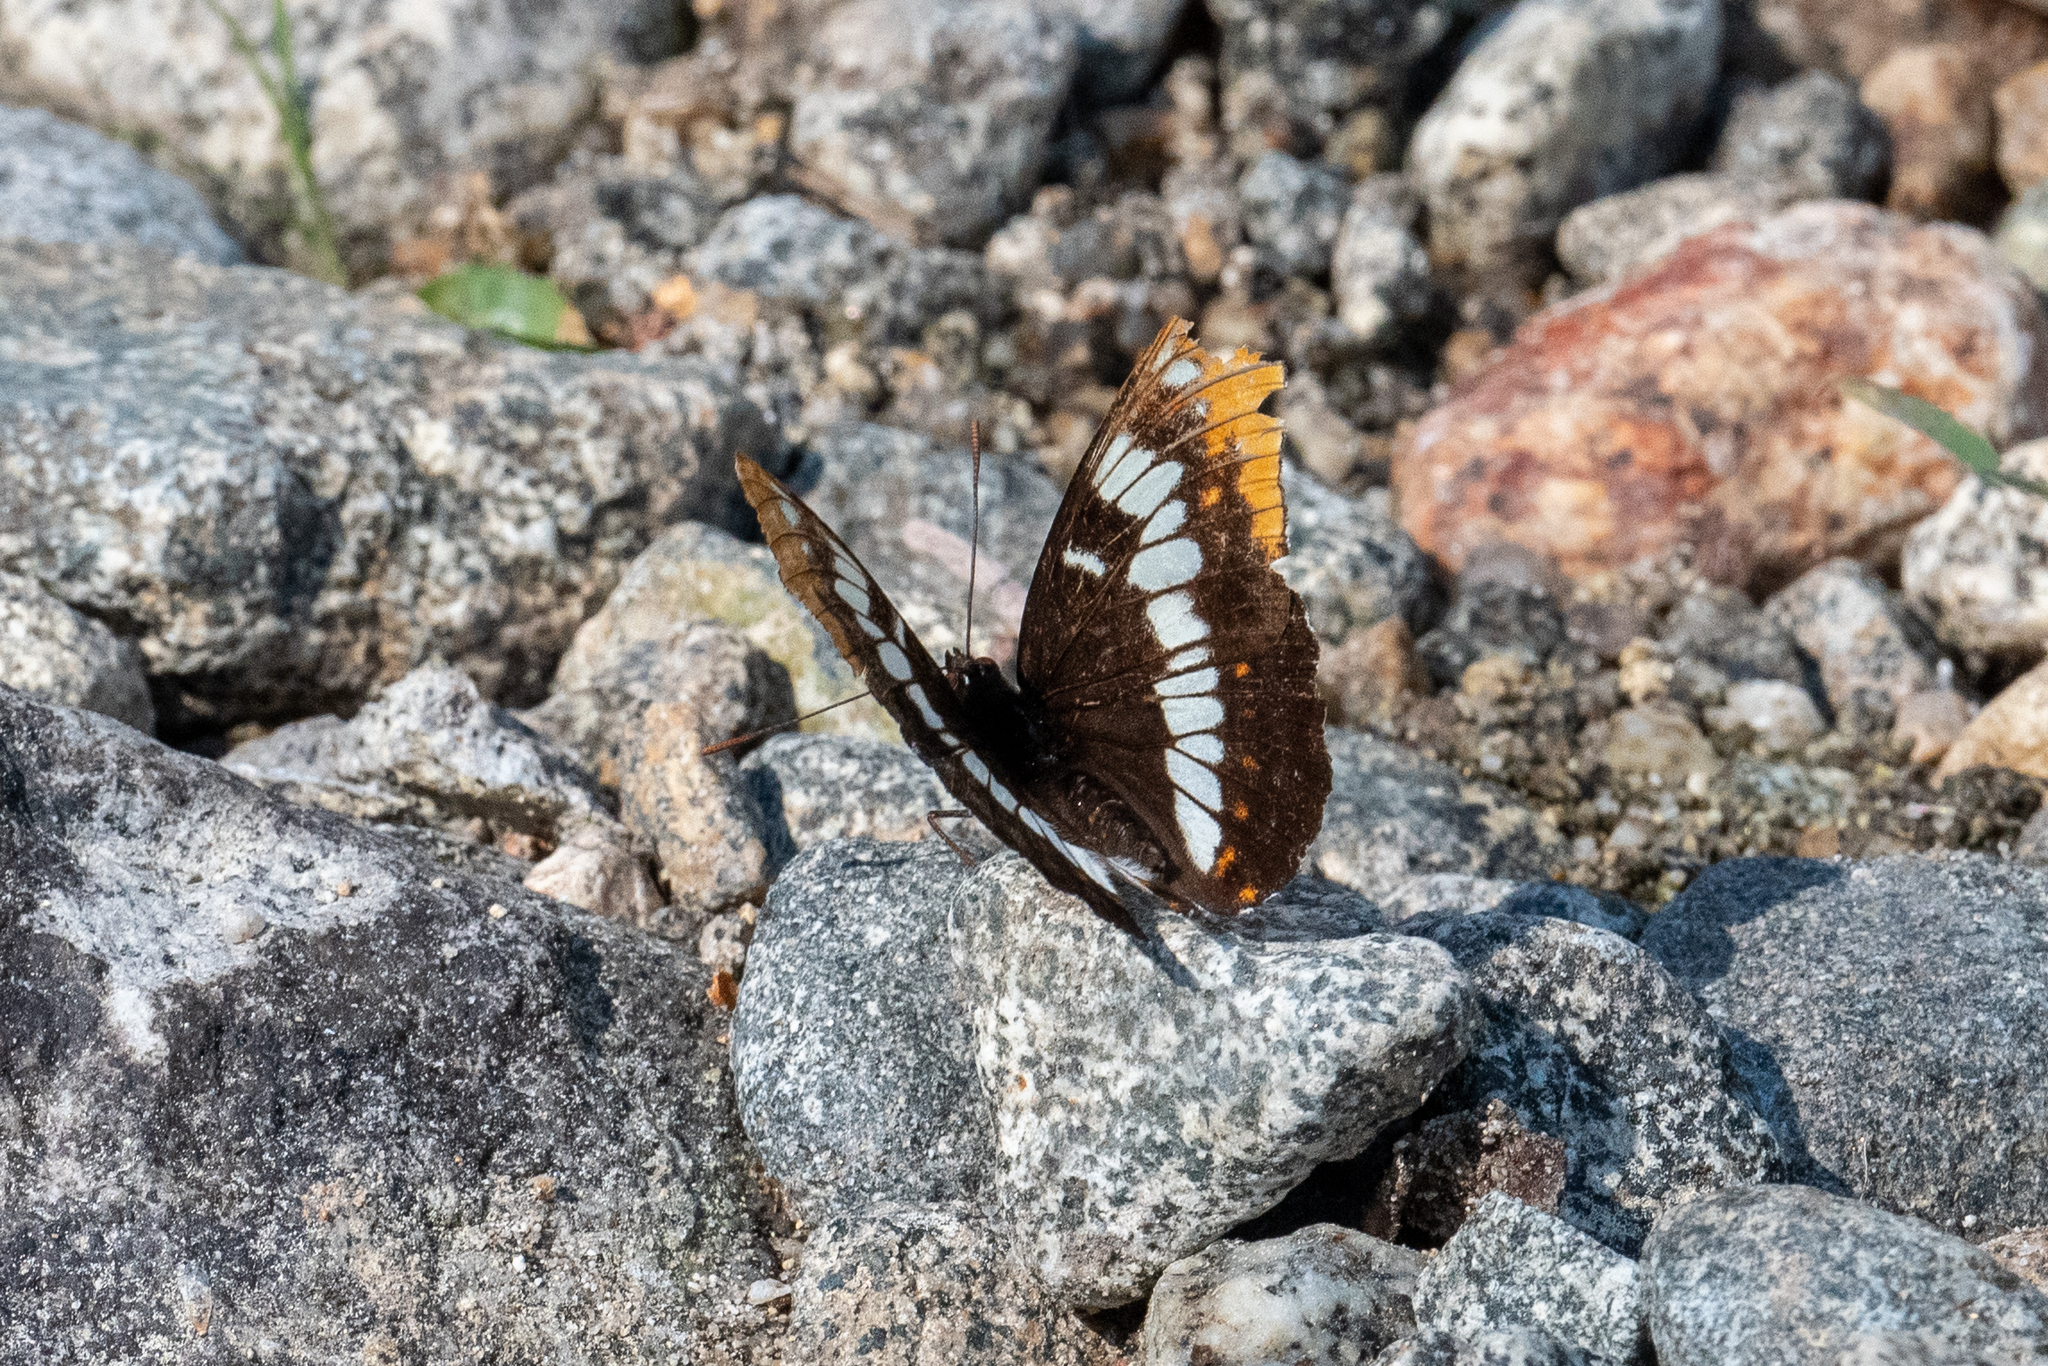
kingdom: Animalia
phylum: Arthropoda
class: Insecta
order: Lepidoptera
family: Nymphalidae
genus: Limenitis
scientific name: Limenitis lorquini
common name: Lorquin's admiral
